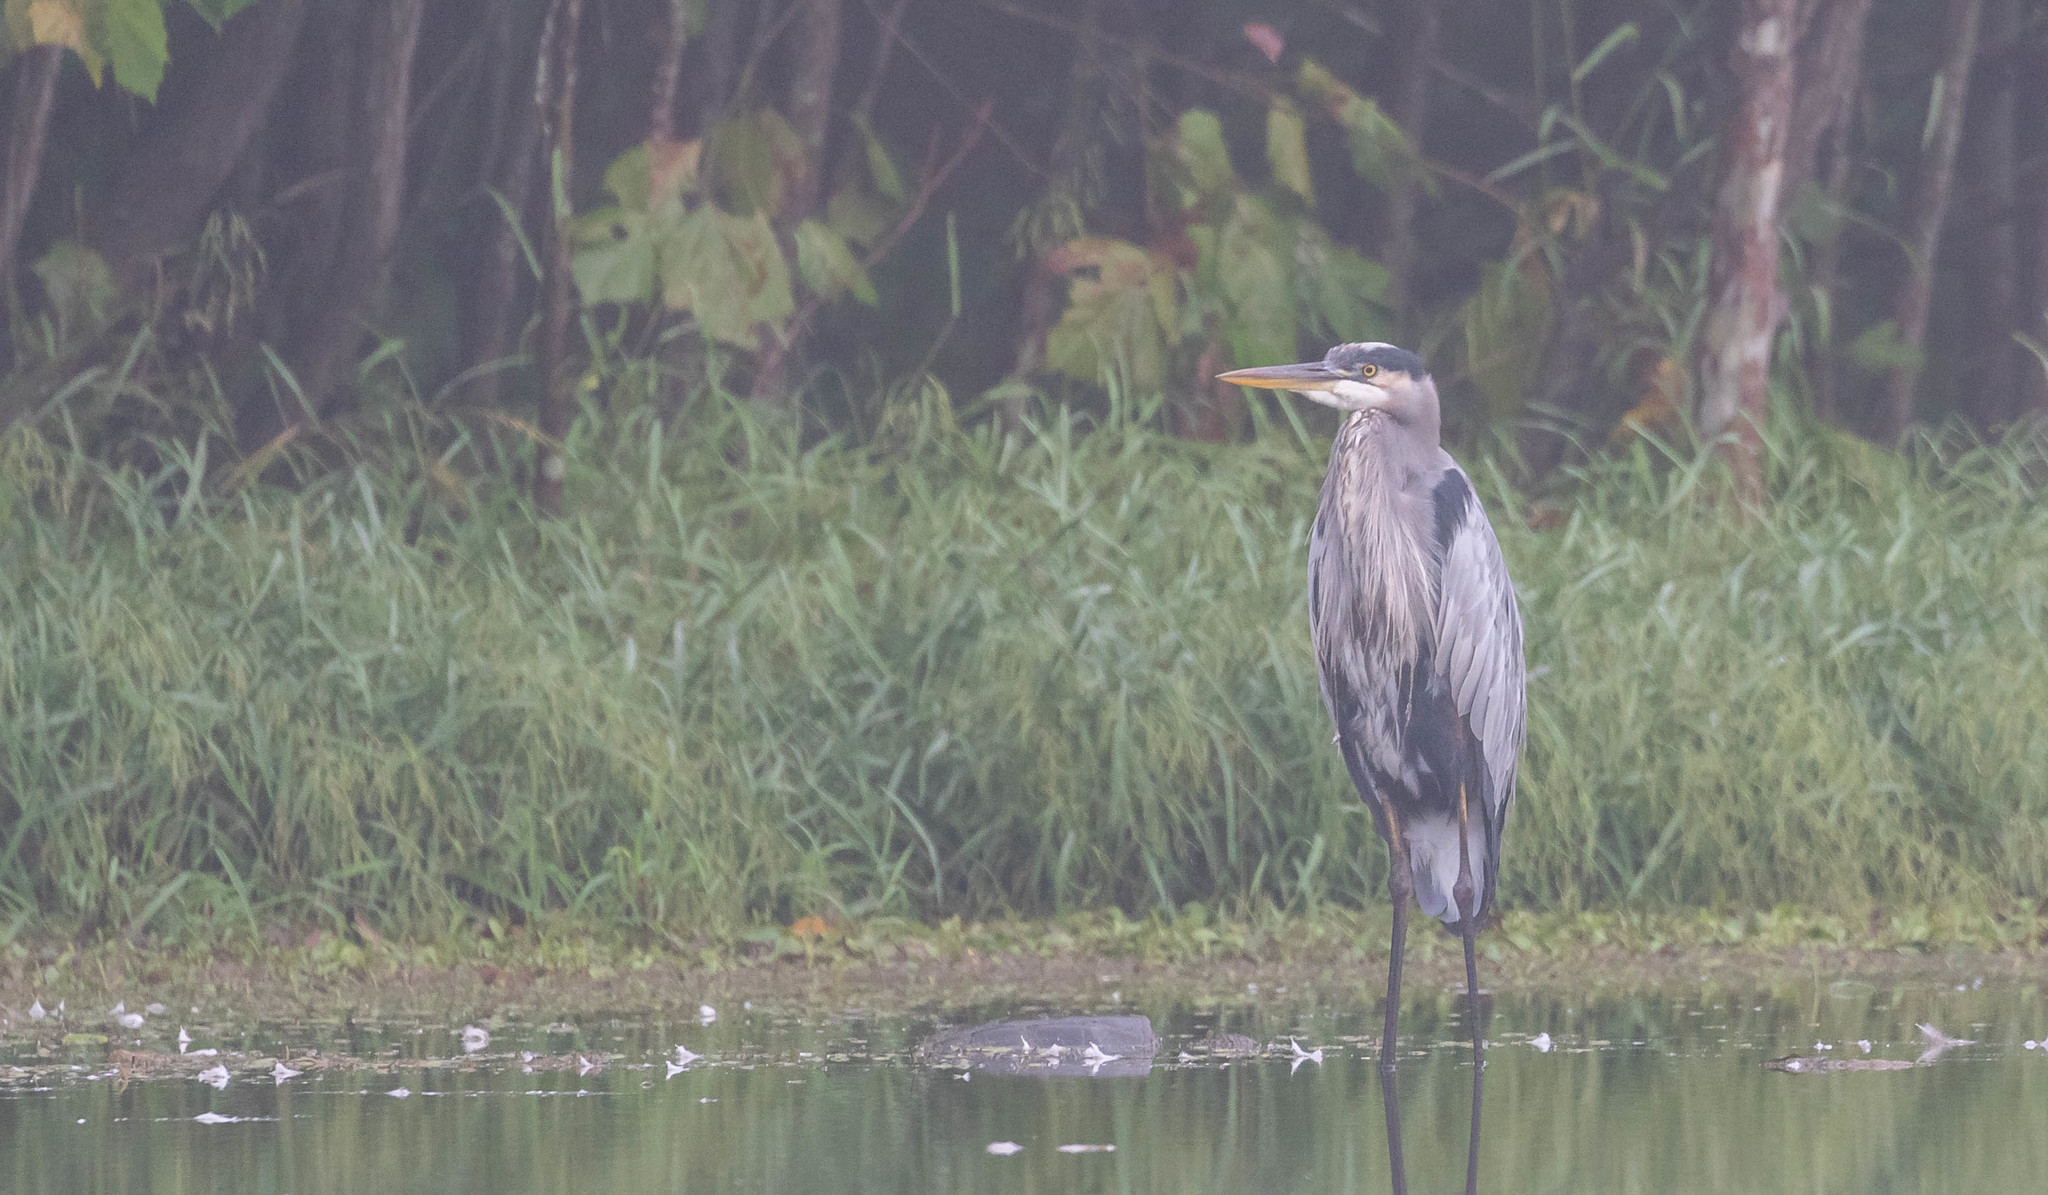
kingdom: Animalia
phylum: Chordata
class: Aves
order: Pelecaniformes
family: Ardeidae
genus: Ardea
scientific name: Ardea herodias
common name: Great blue heron
